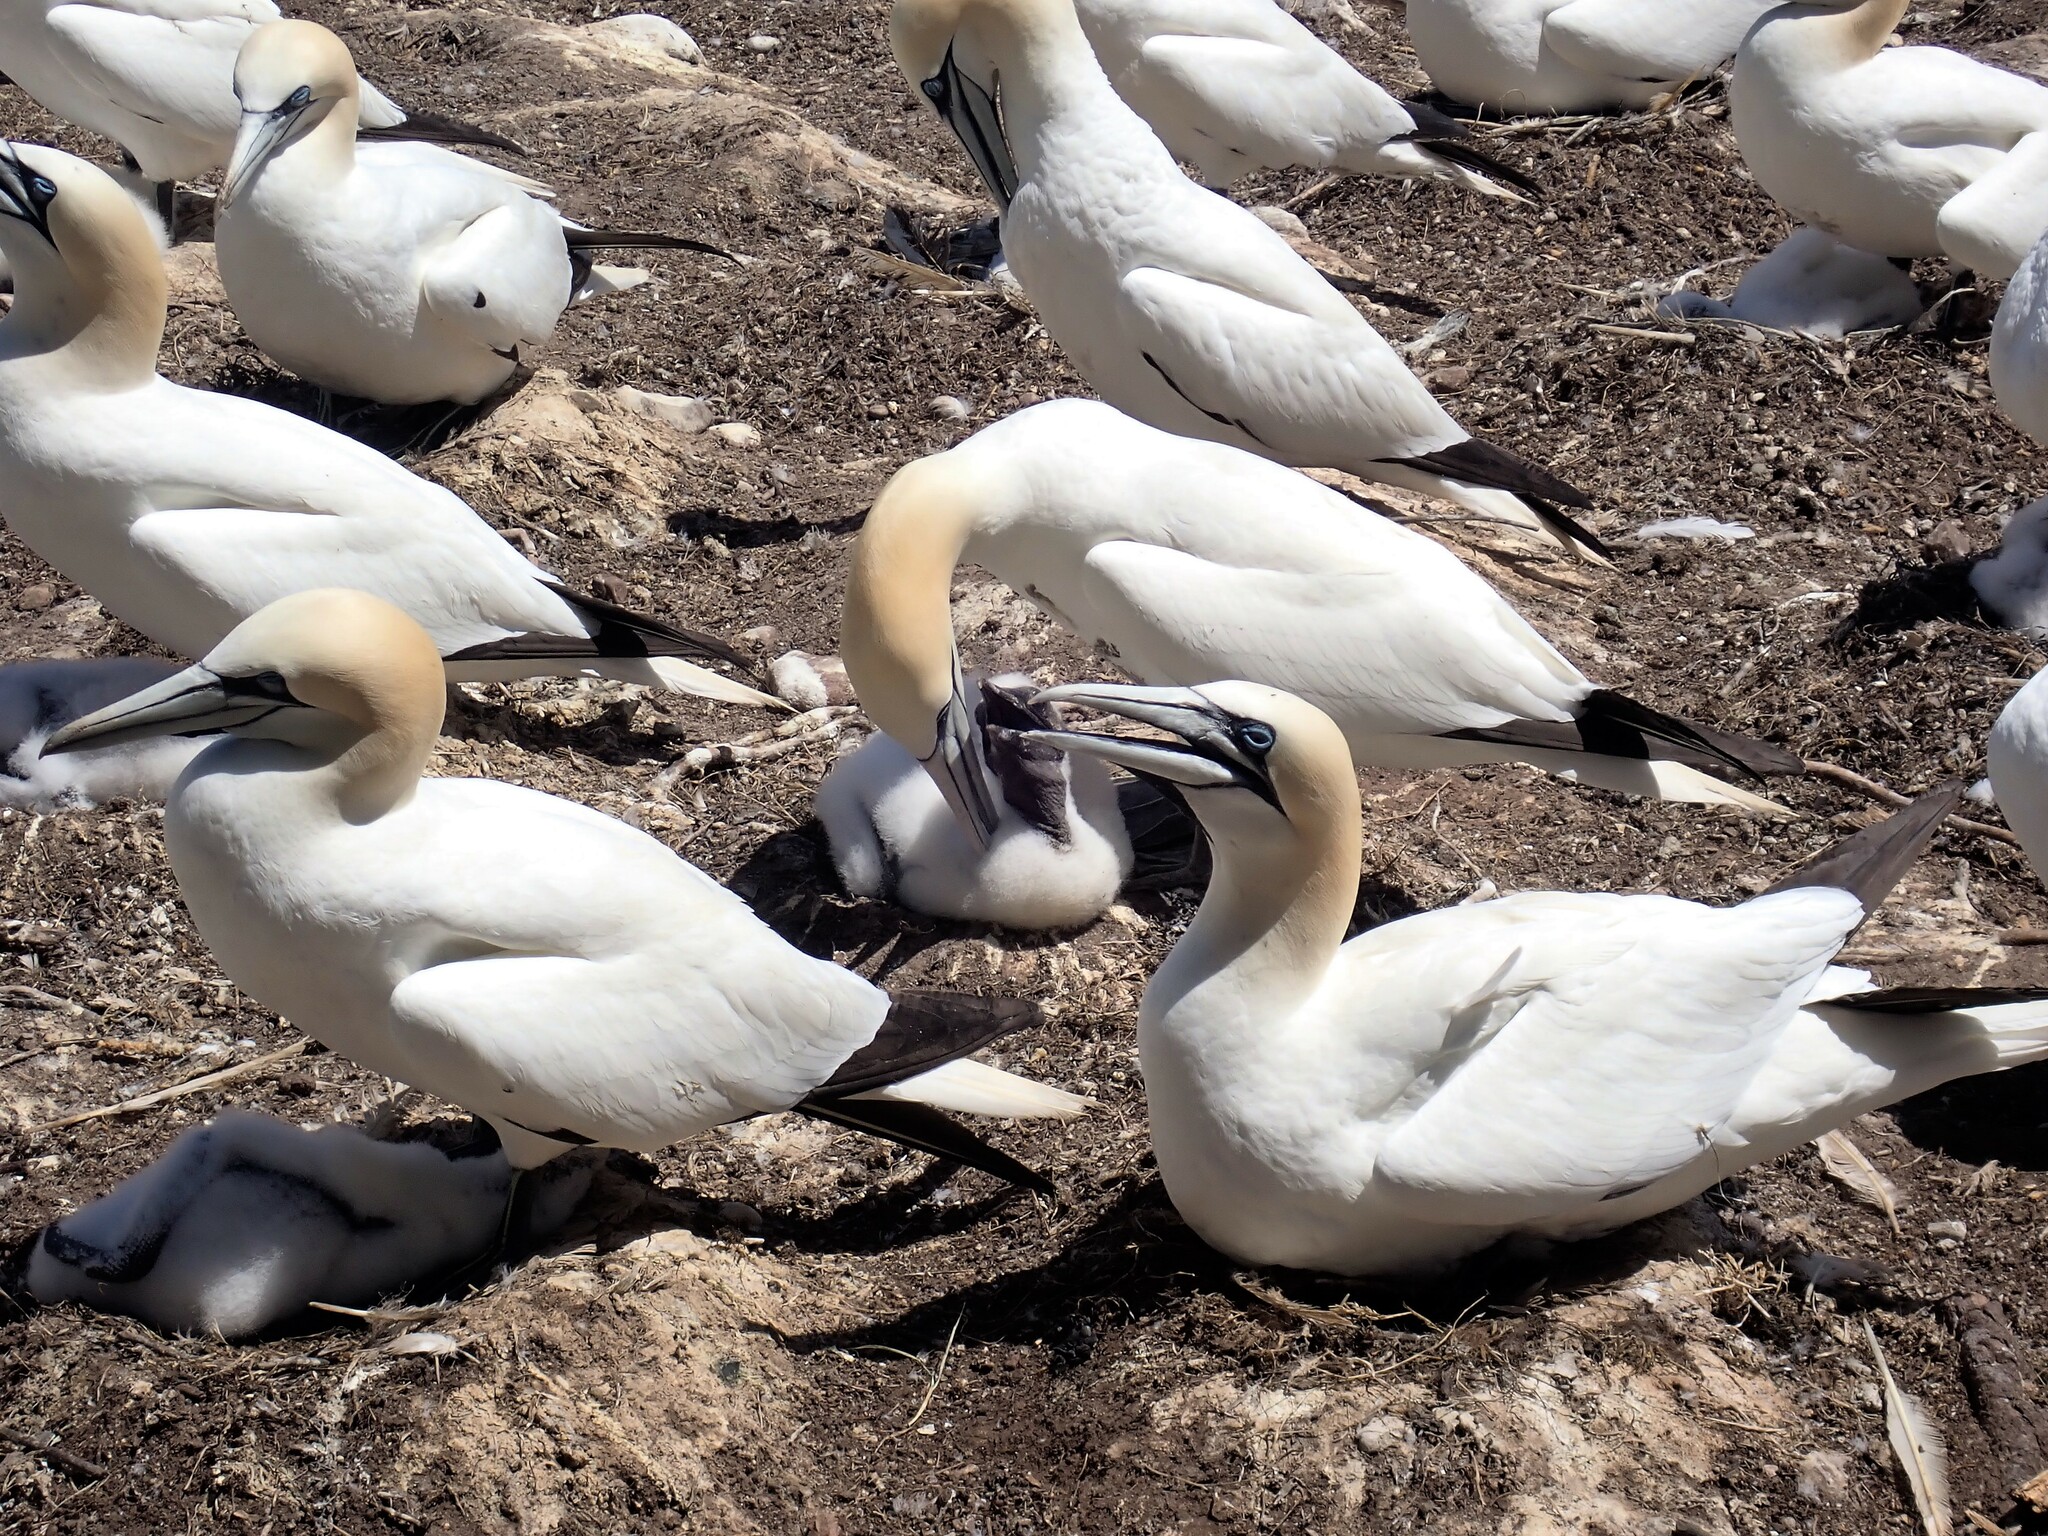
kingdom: Animalia
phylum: Chordata
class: Aves
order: Suliformes
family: Sulidae
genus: Morus
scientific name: Morus bassanus
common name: Northern gannet
